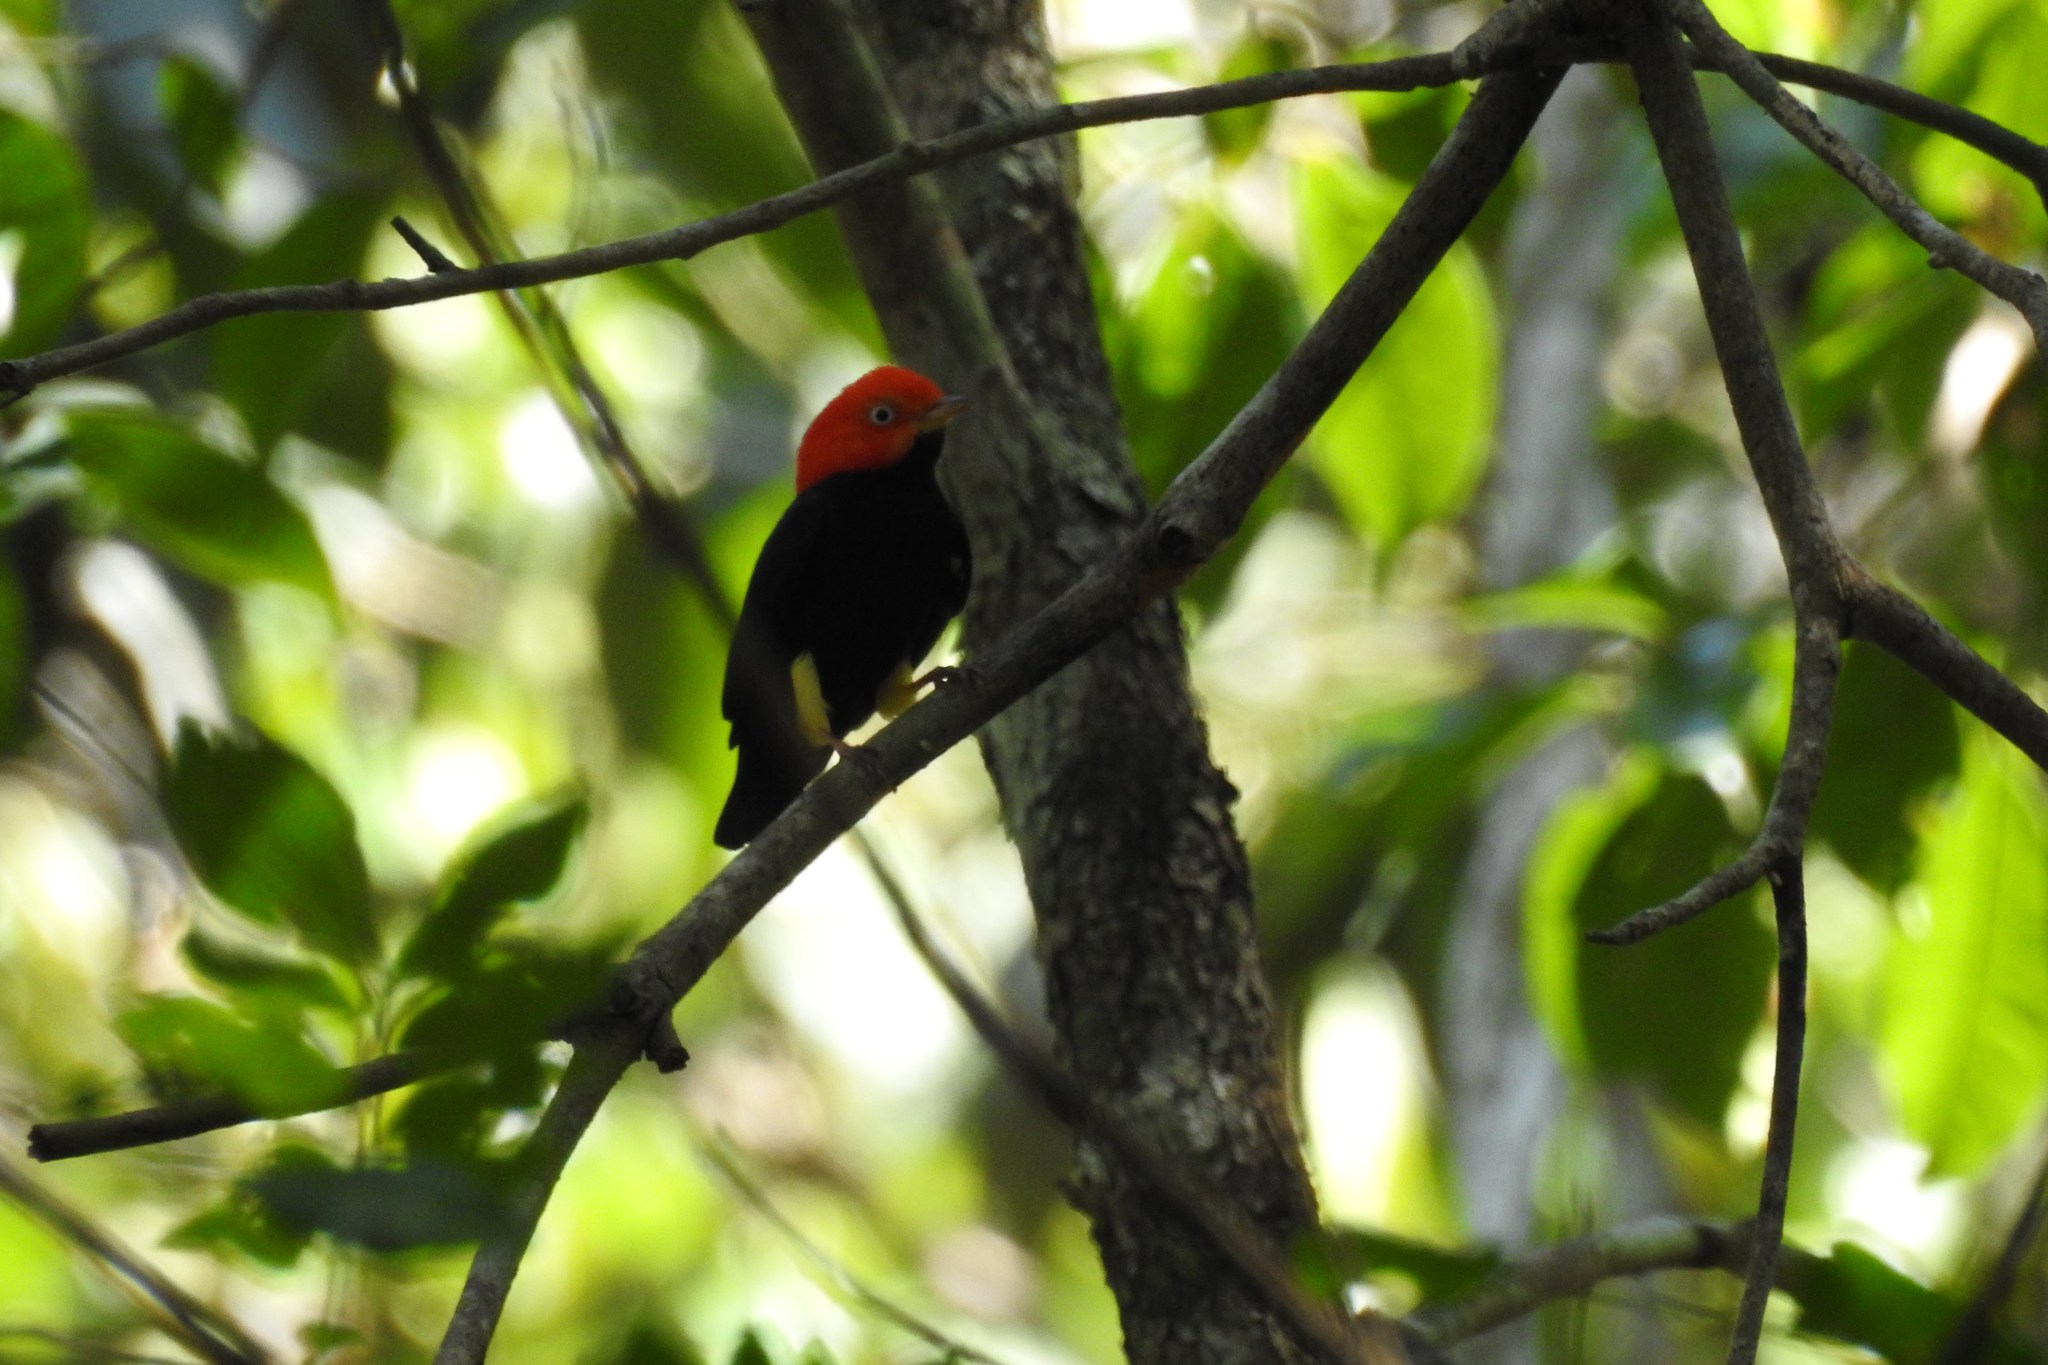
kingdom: Animalia
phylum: Chordata
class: Aves
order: Passeriformes
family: Pipridae
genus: Pipra
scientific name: Pipra mentalis
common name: Red-capped manakin
